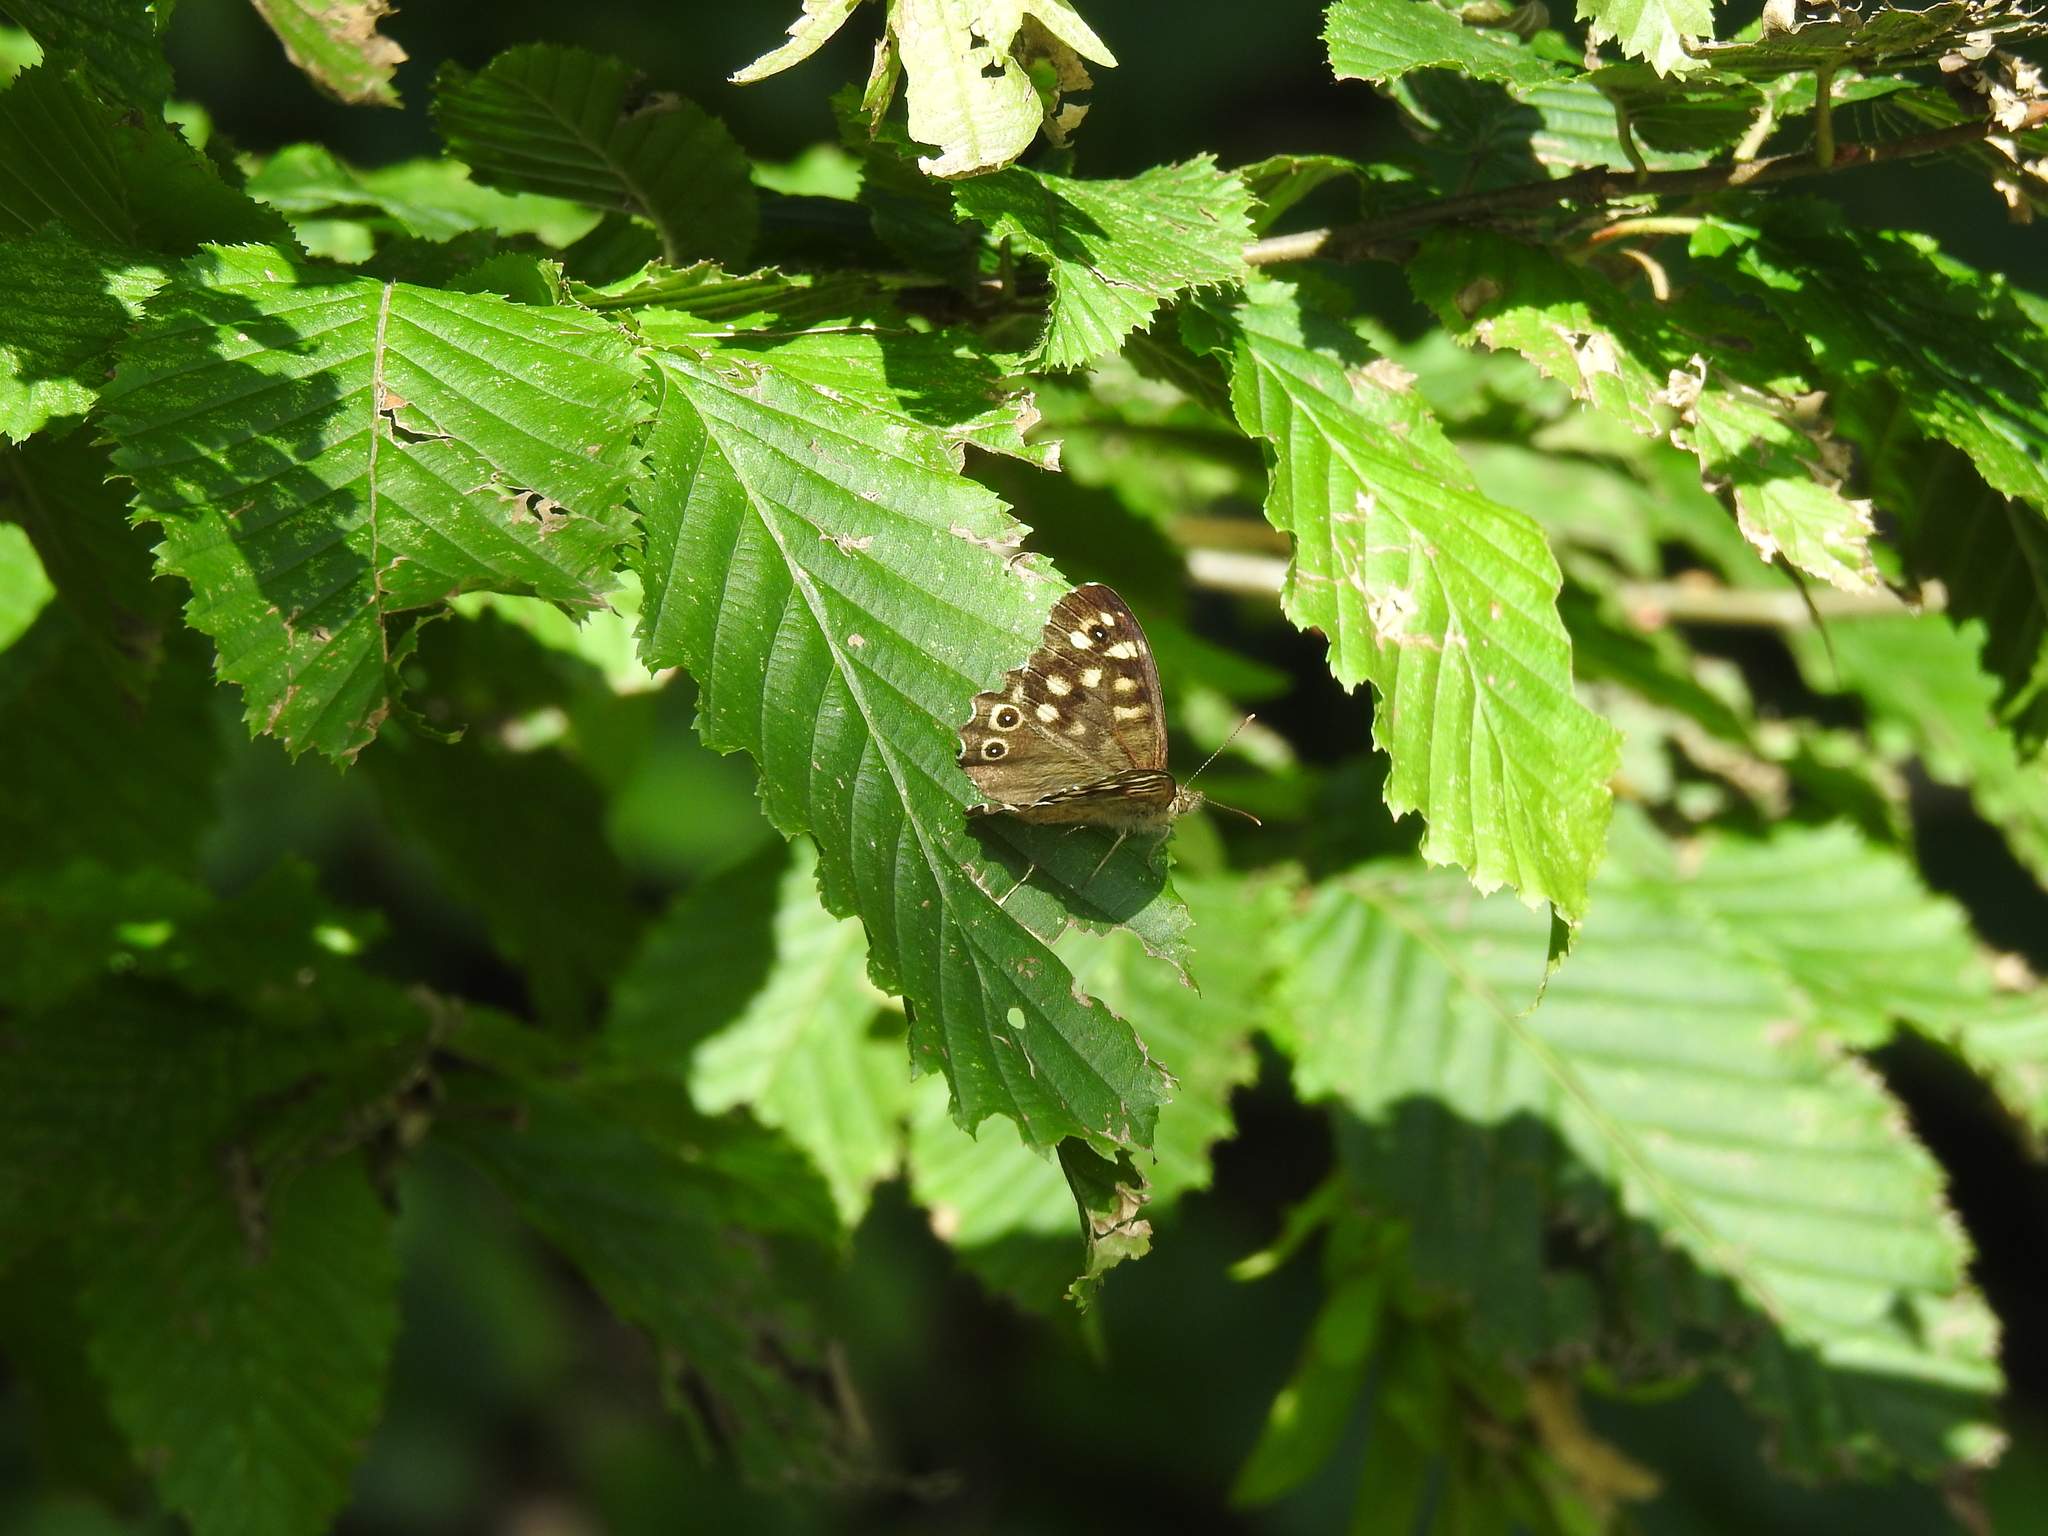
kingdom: Animalia
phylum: Arthropoda
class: Insecta
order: Lepidoptera
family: Nymphalidae
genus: Pararge
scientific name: Pararge aegeria
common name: Speckled wood
